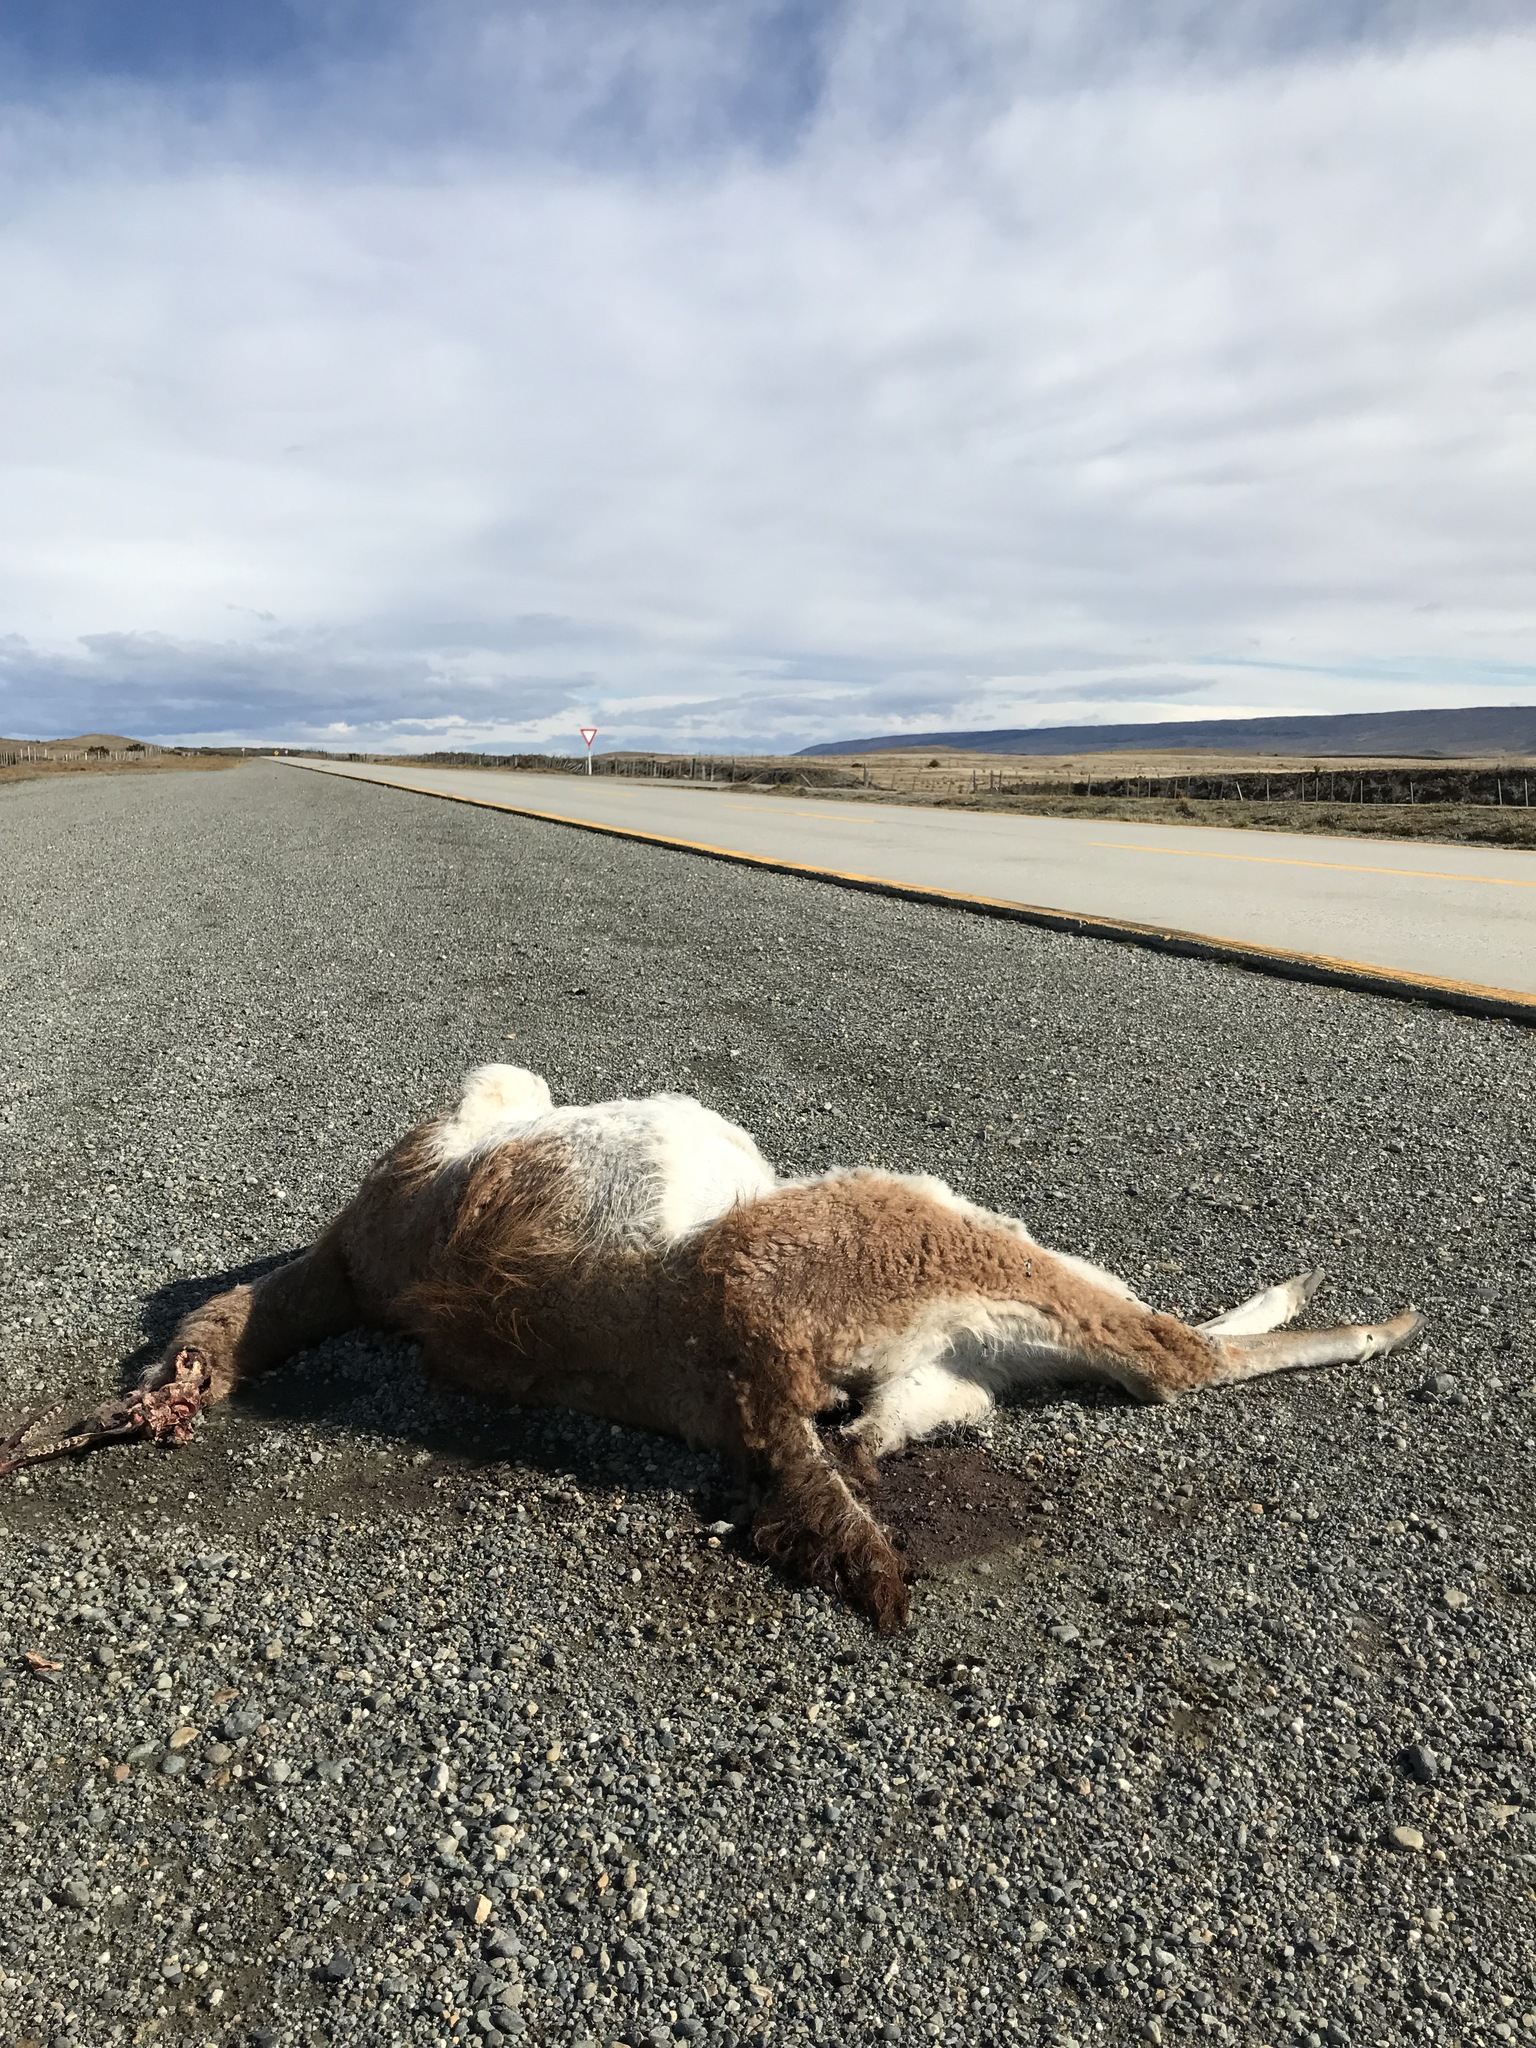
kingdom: Animalia
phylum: Chordata
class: Mammalia
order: Artiodactyla
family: Camelidae
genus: Lama
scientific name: Lama glama
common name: Llama
